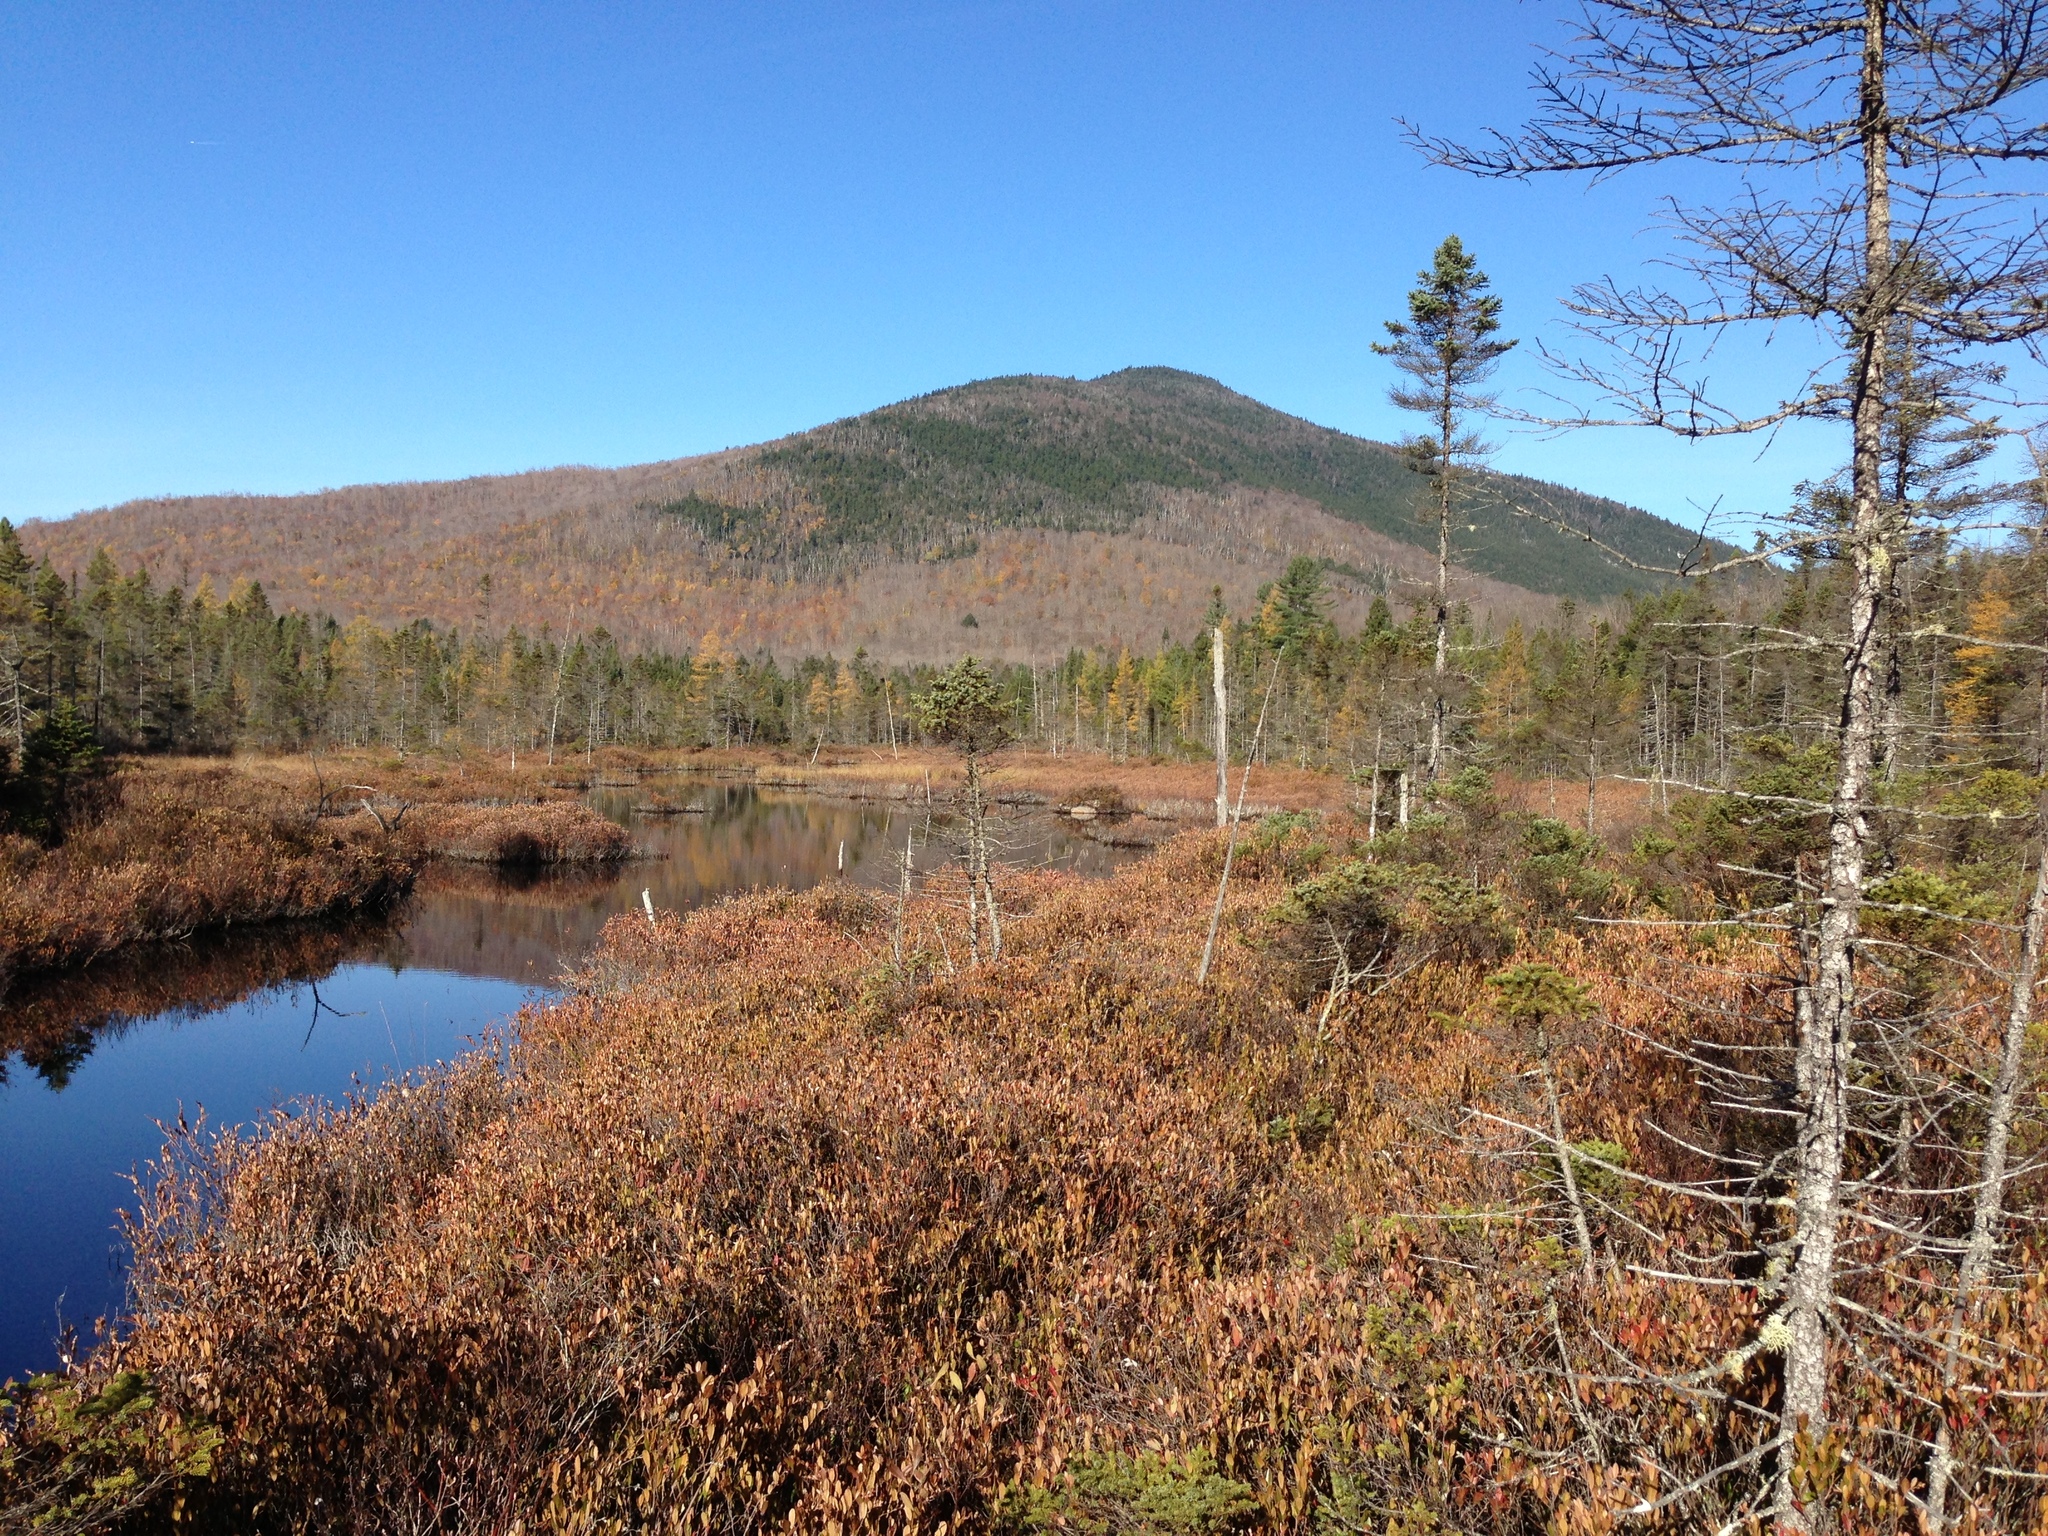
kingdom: Plantae
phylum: Tracheophyta
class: Pinopsida
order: Pinales
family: Pinaceae
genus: Larix
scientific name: Larix laricina
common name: American larch
